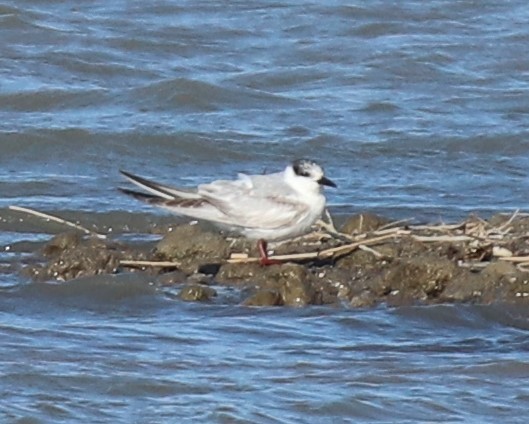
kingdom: Animalia
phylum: Chordata
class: Aves
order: Charadriiformes
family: Laridae
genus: Chlidonias
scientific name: Chlidonias hybrida
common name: Whiskered tern
